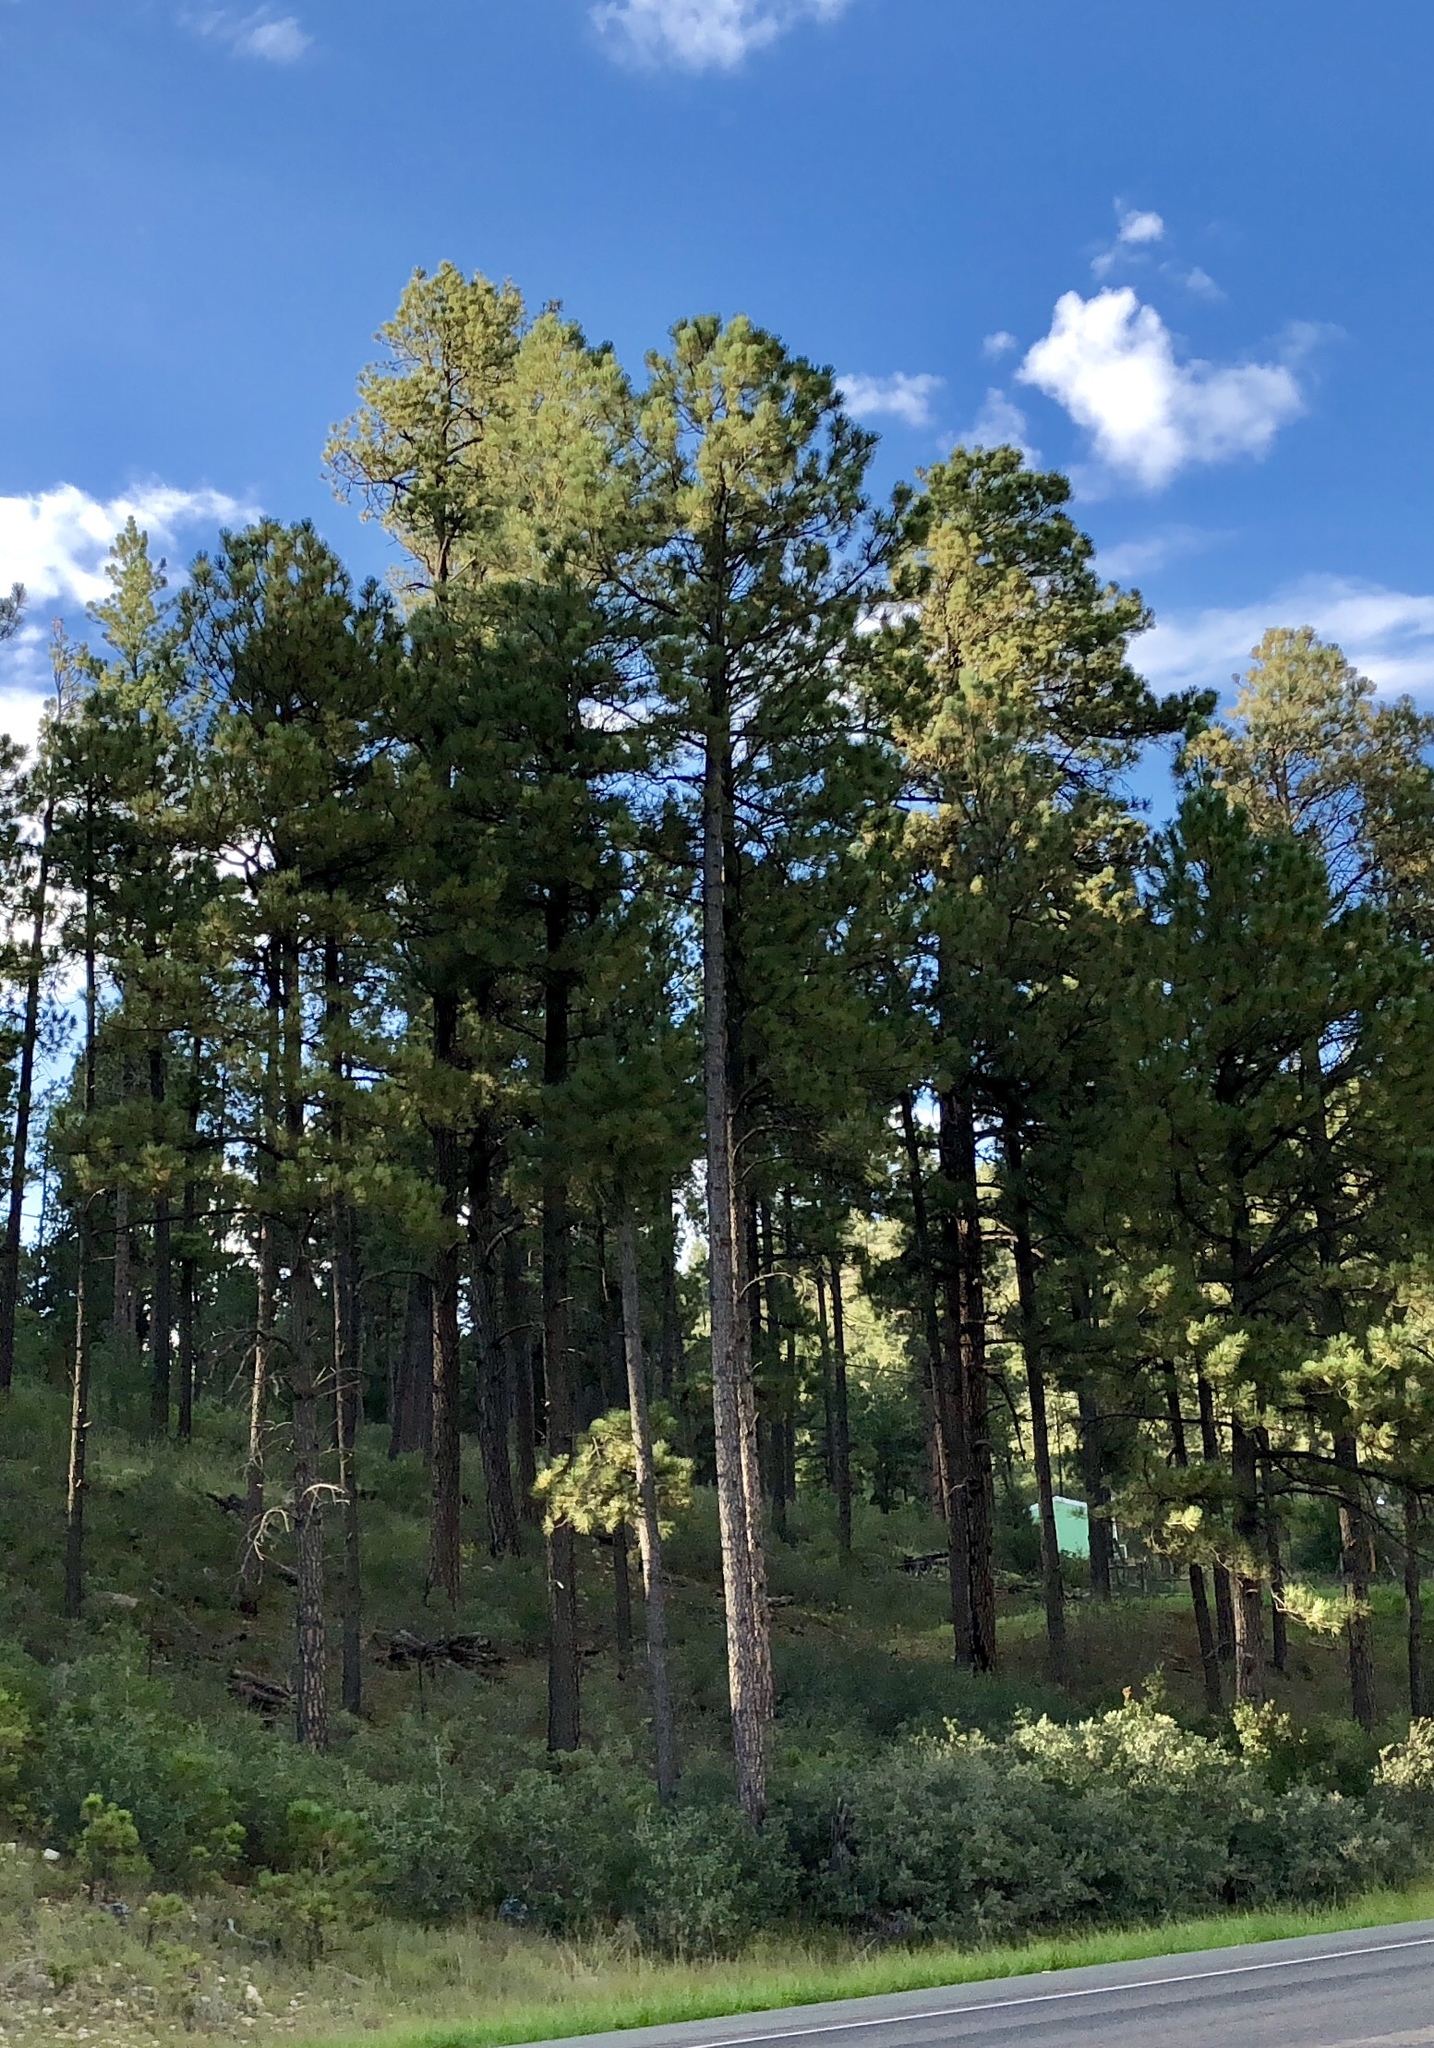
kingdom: Plantae
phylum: Tracheophyta
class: Pinopsida
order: Pinales
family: Pinaceae
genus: Pinus
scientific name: Pinus ponderosa
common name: Western yellow-pine
